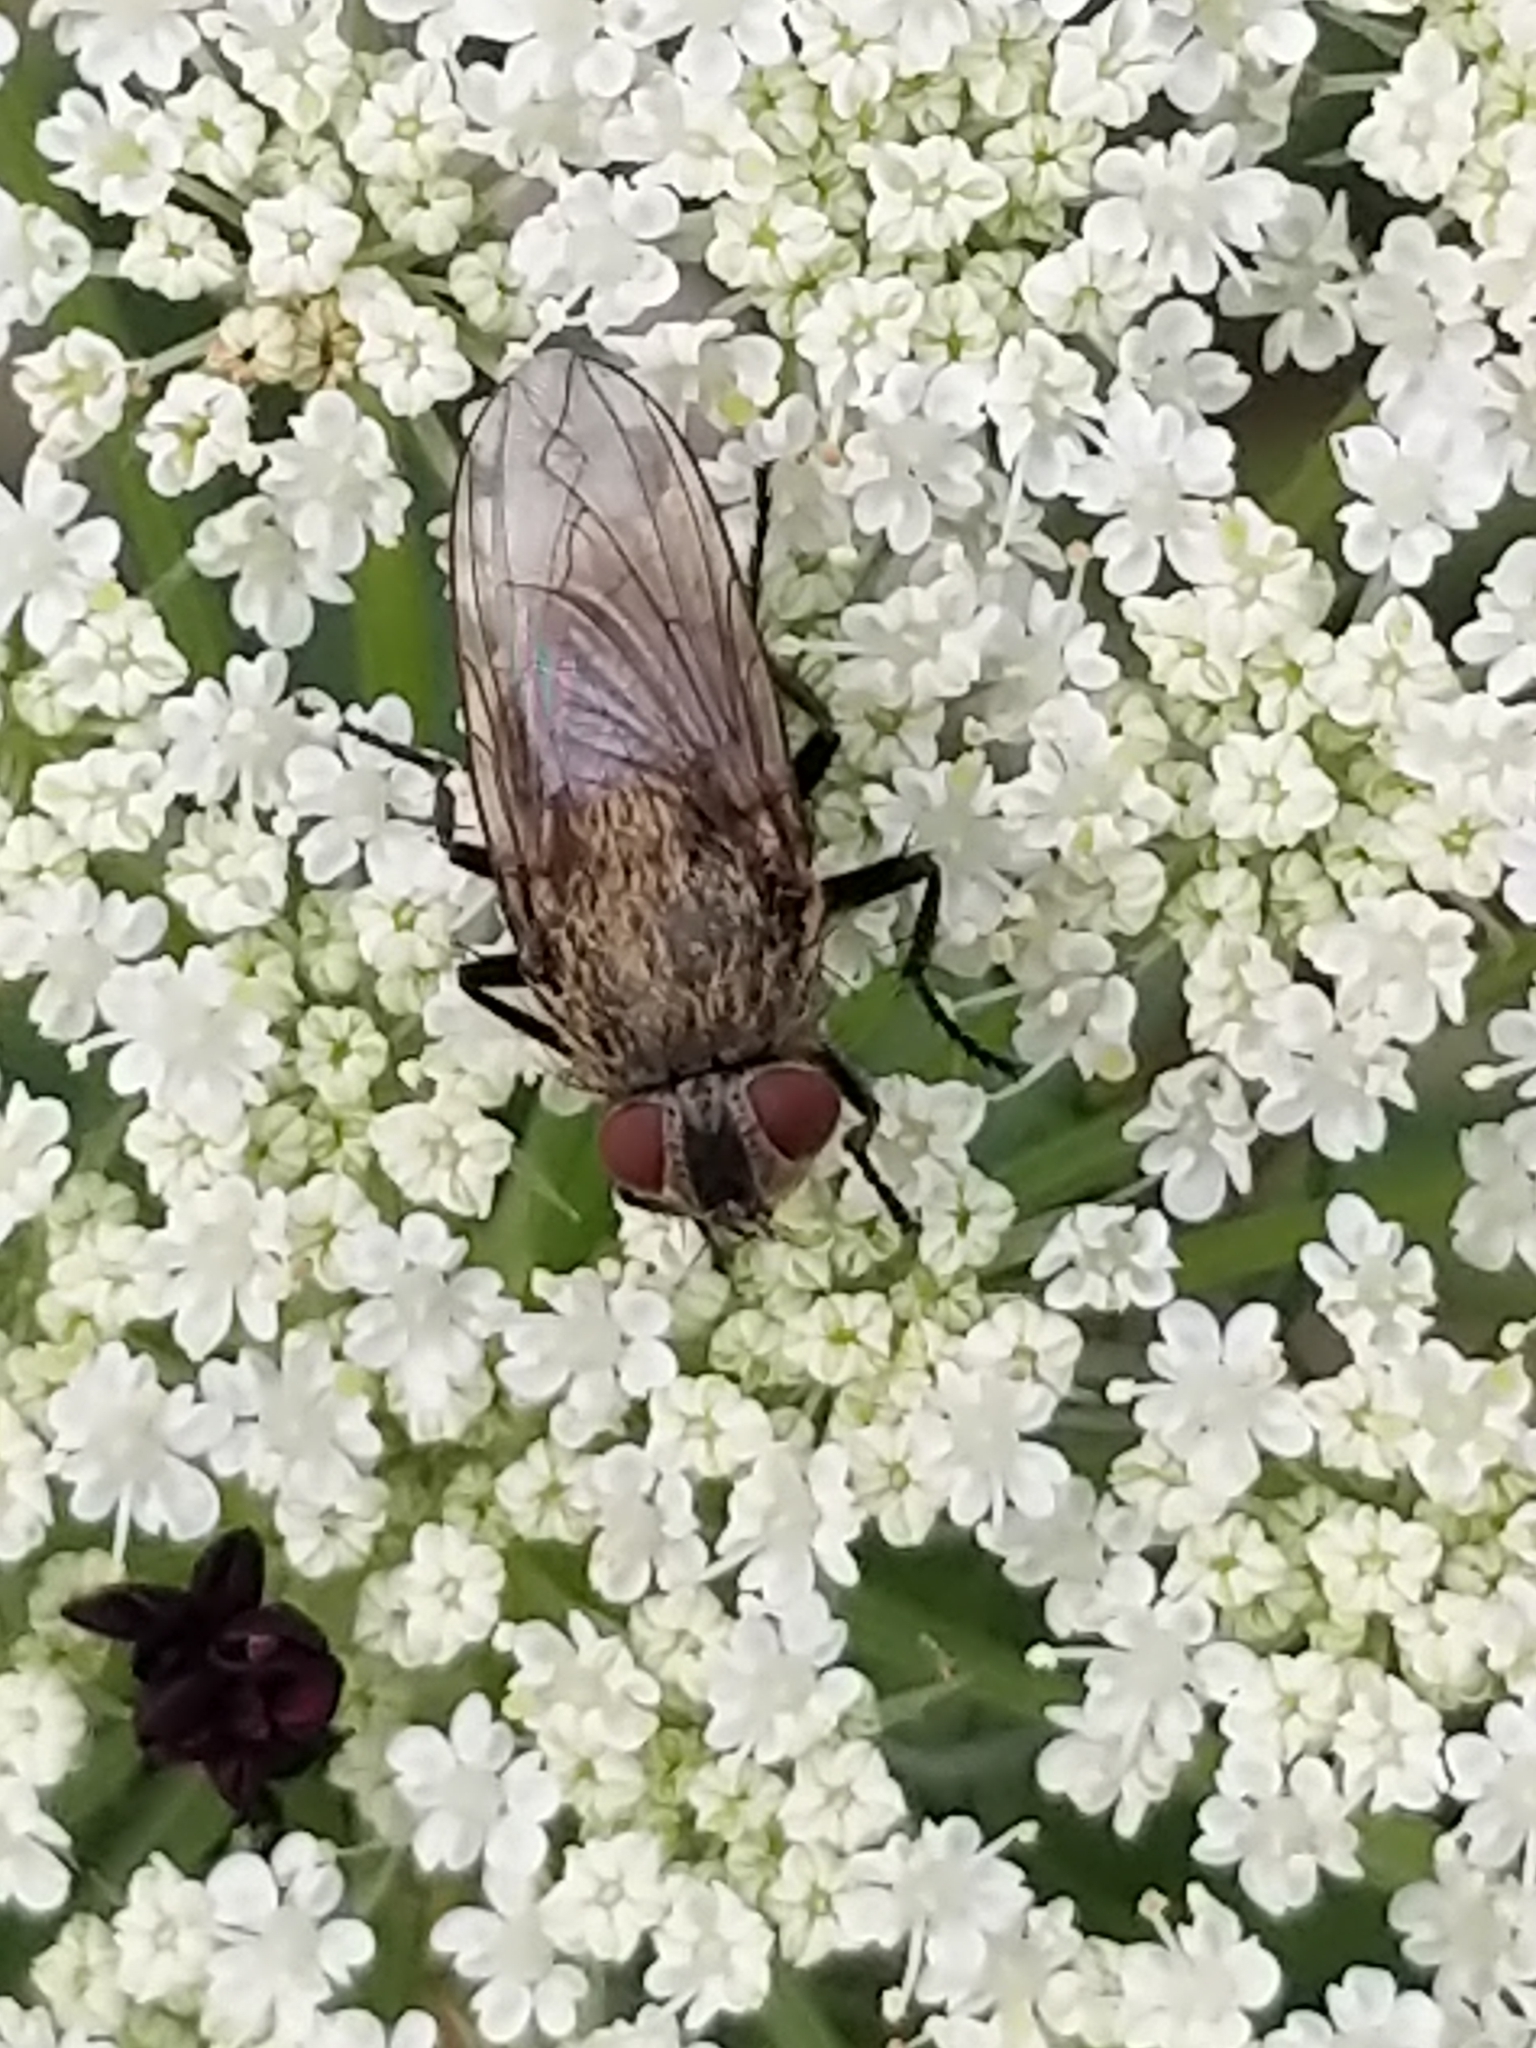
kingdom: Animalia
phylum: Arthropoda
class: Insecta
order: Diptera
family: Polleniidae
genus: Pollenia
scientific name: Pollenia
